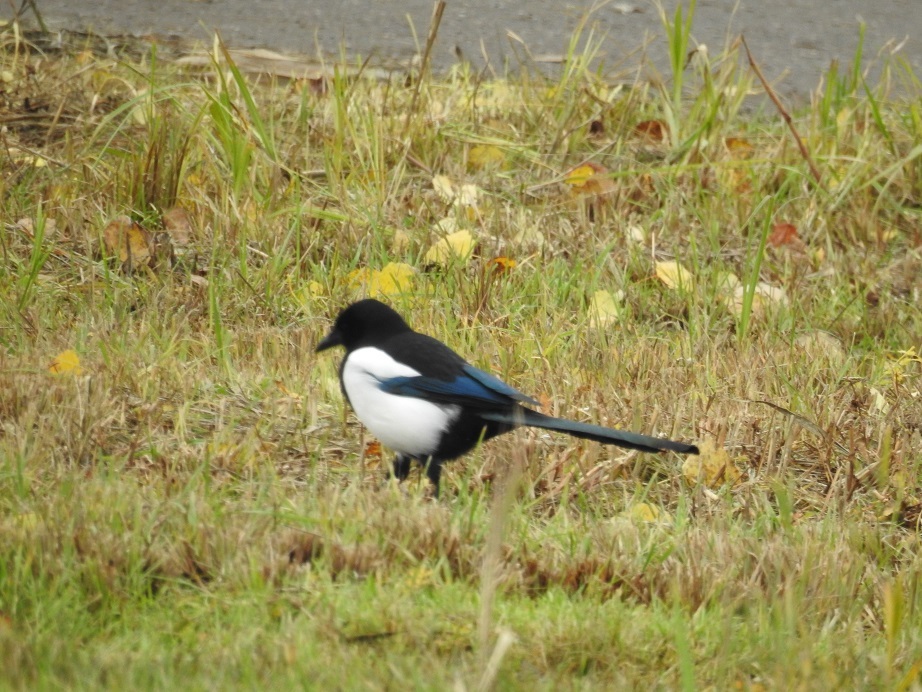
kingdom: Animalia
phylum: Chordata
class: Aves
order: Passeriformes
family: Corvidae
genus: Pica
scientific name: Pica pica
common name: Eurasian magpie
